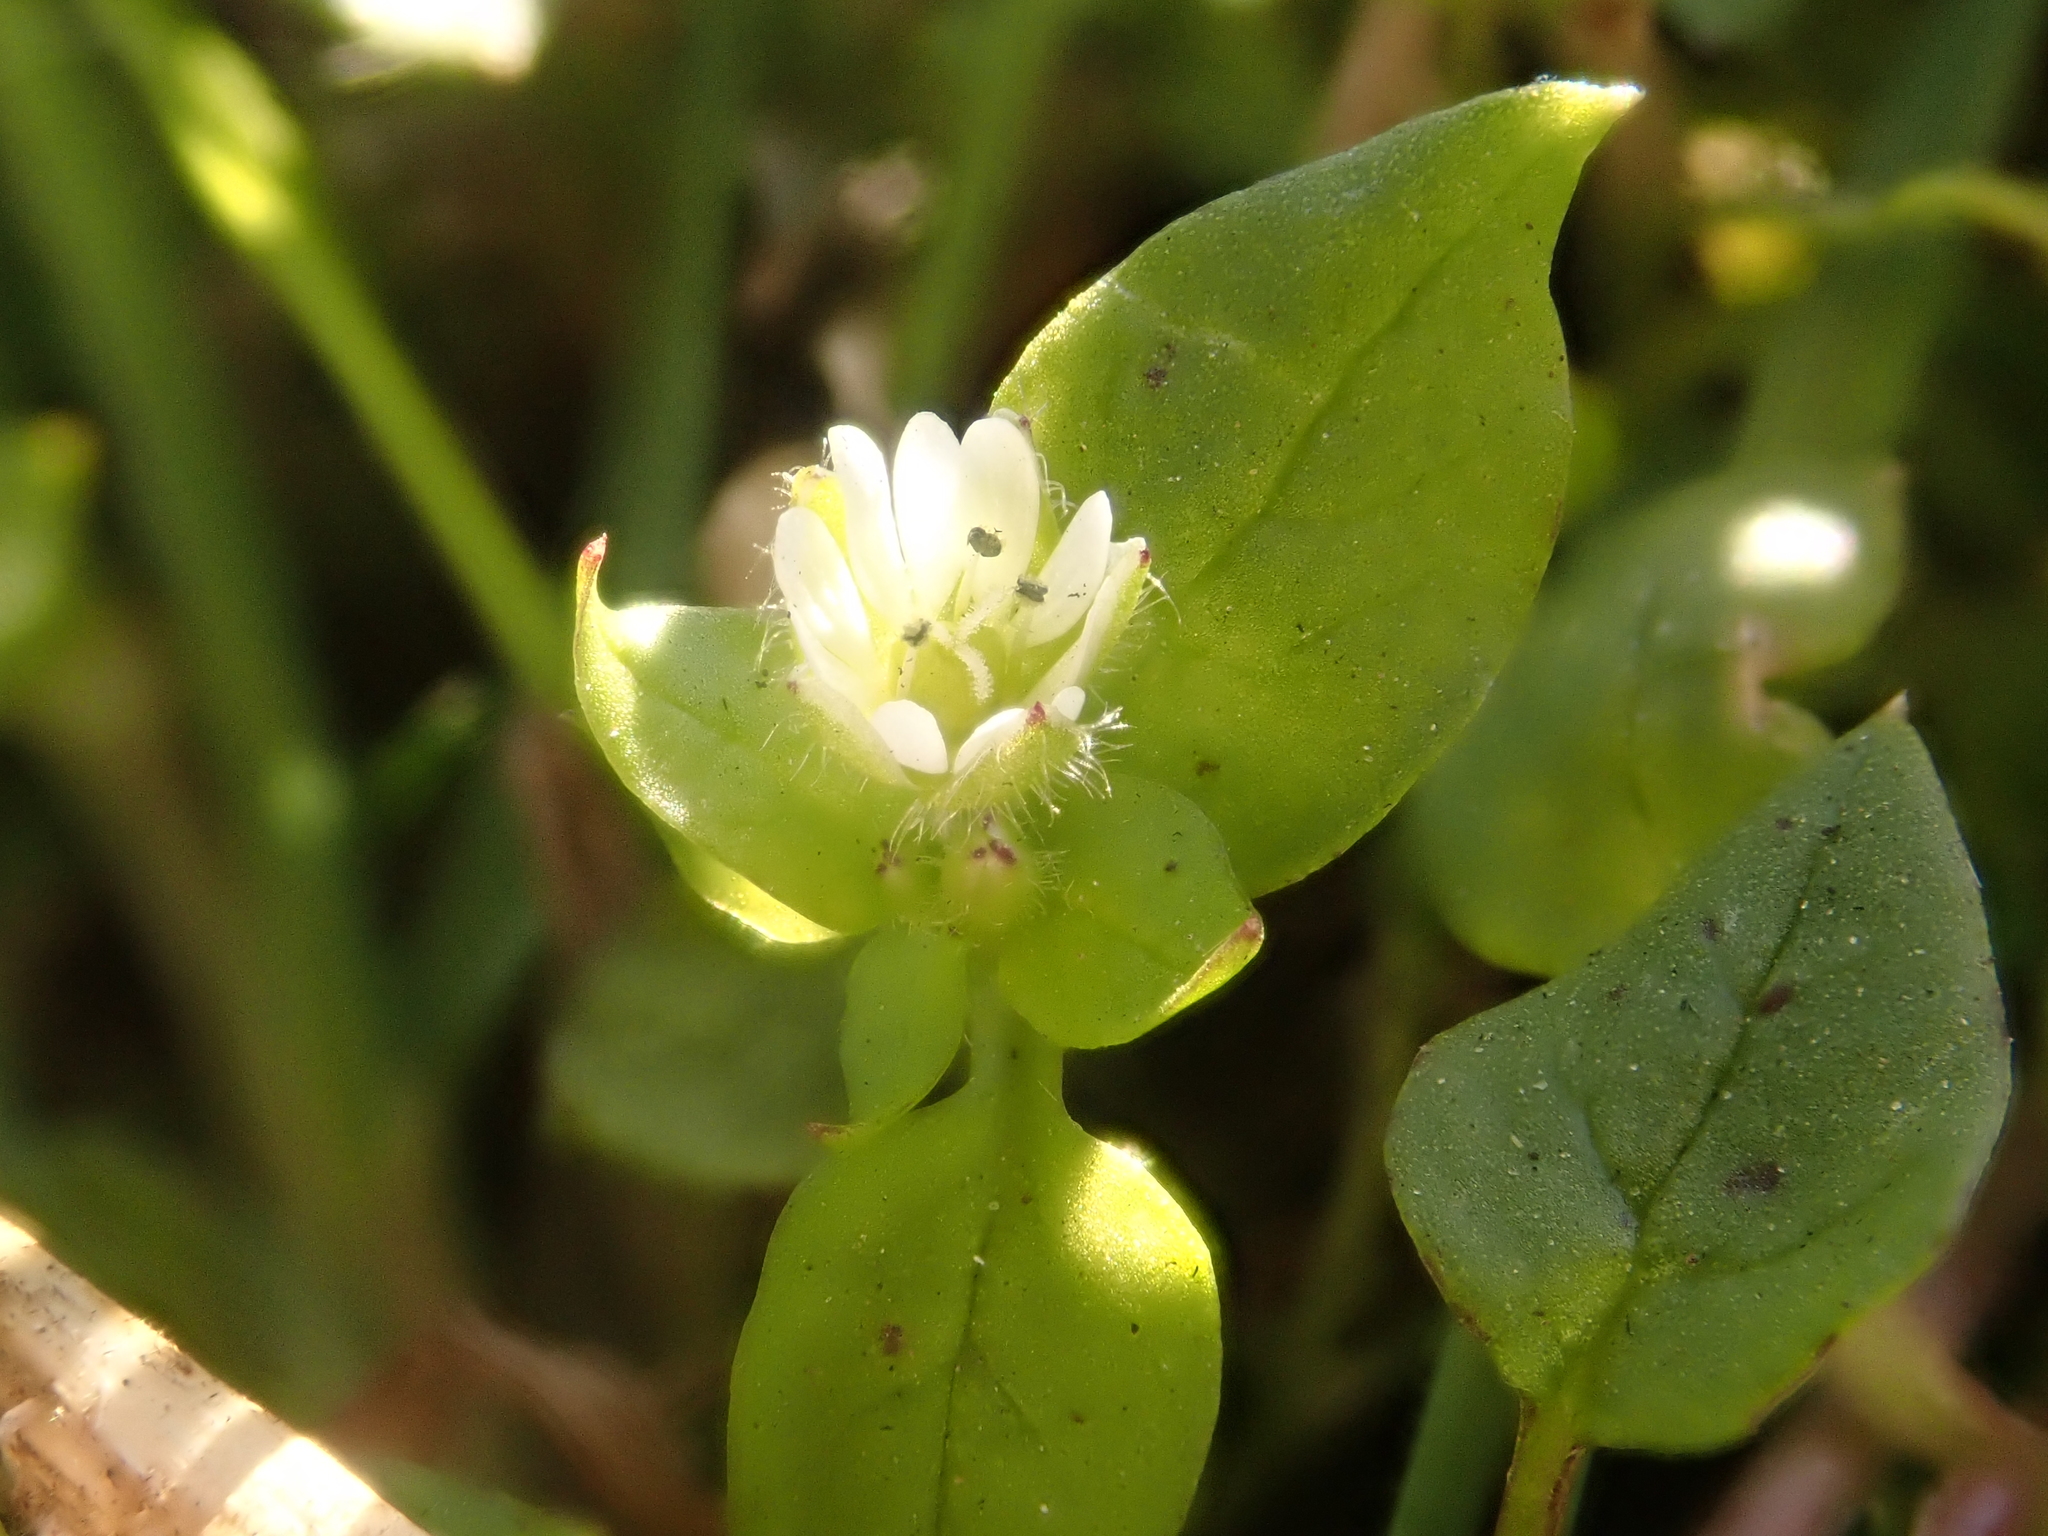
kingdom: Plantae
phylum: Tracheophyta
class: Magnoliopsida
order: Caryophyllales
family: Caryophyllaceae
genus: Stellaria
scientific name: Stellaria media
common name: Common chickweed
